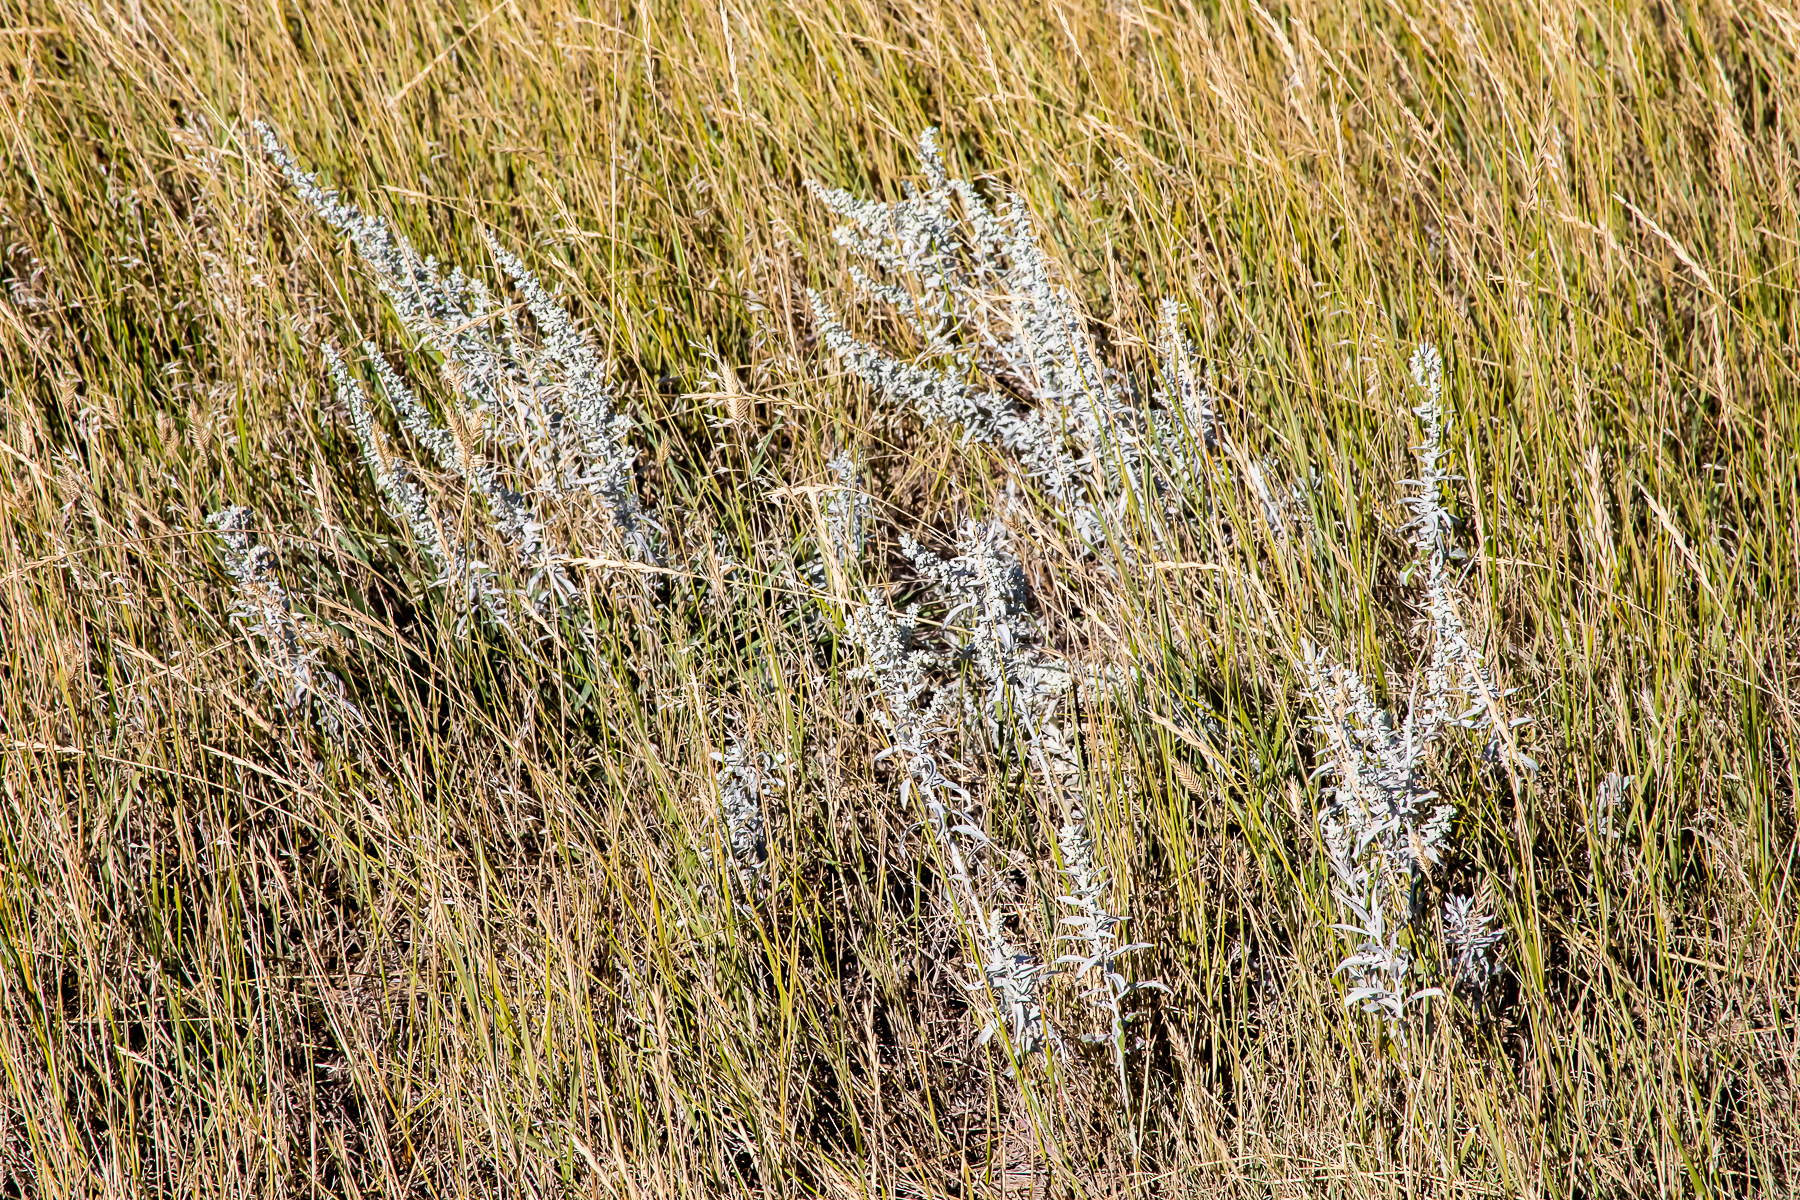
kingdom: Plantae
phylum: Tracheophyta
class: Magnoliopsida
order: Asterales
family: Asteraceae
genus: Artemisia
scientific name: Artemisia ludoviciana
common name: Western mugwort
